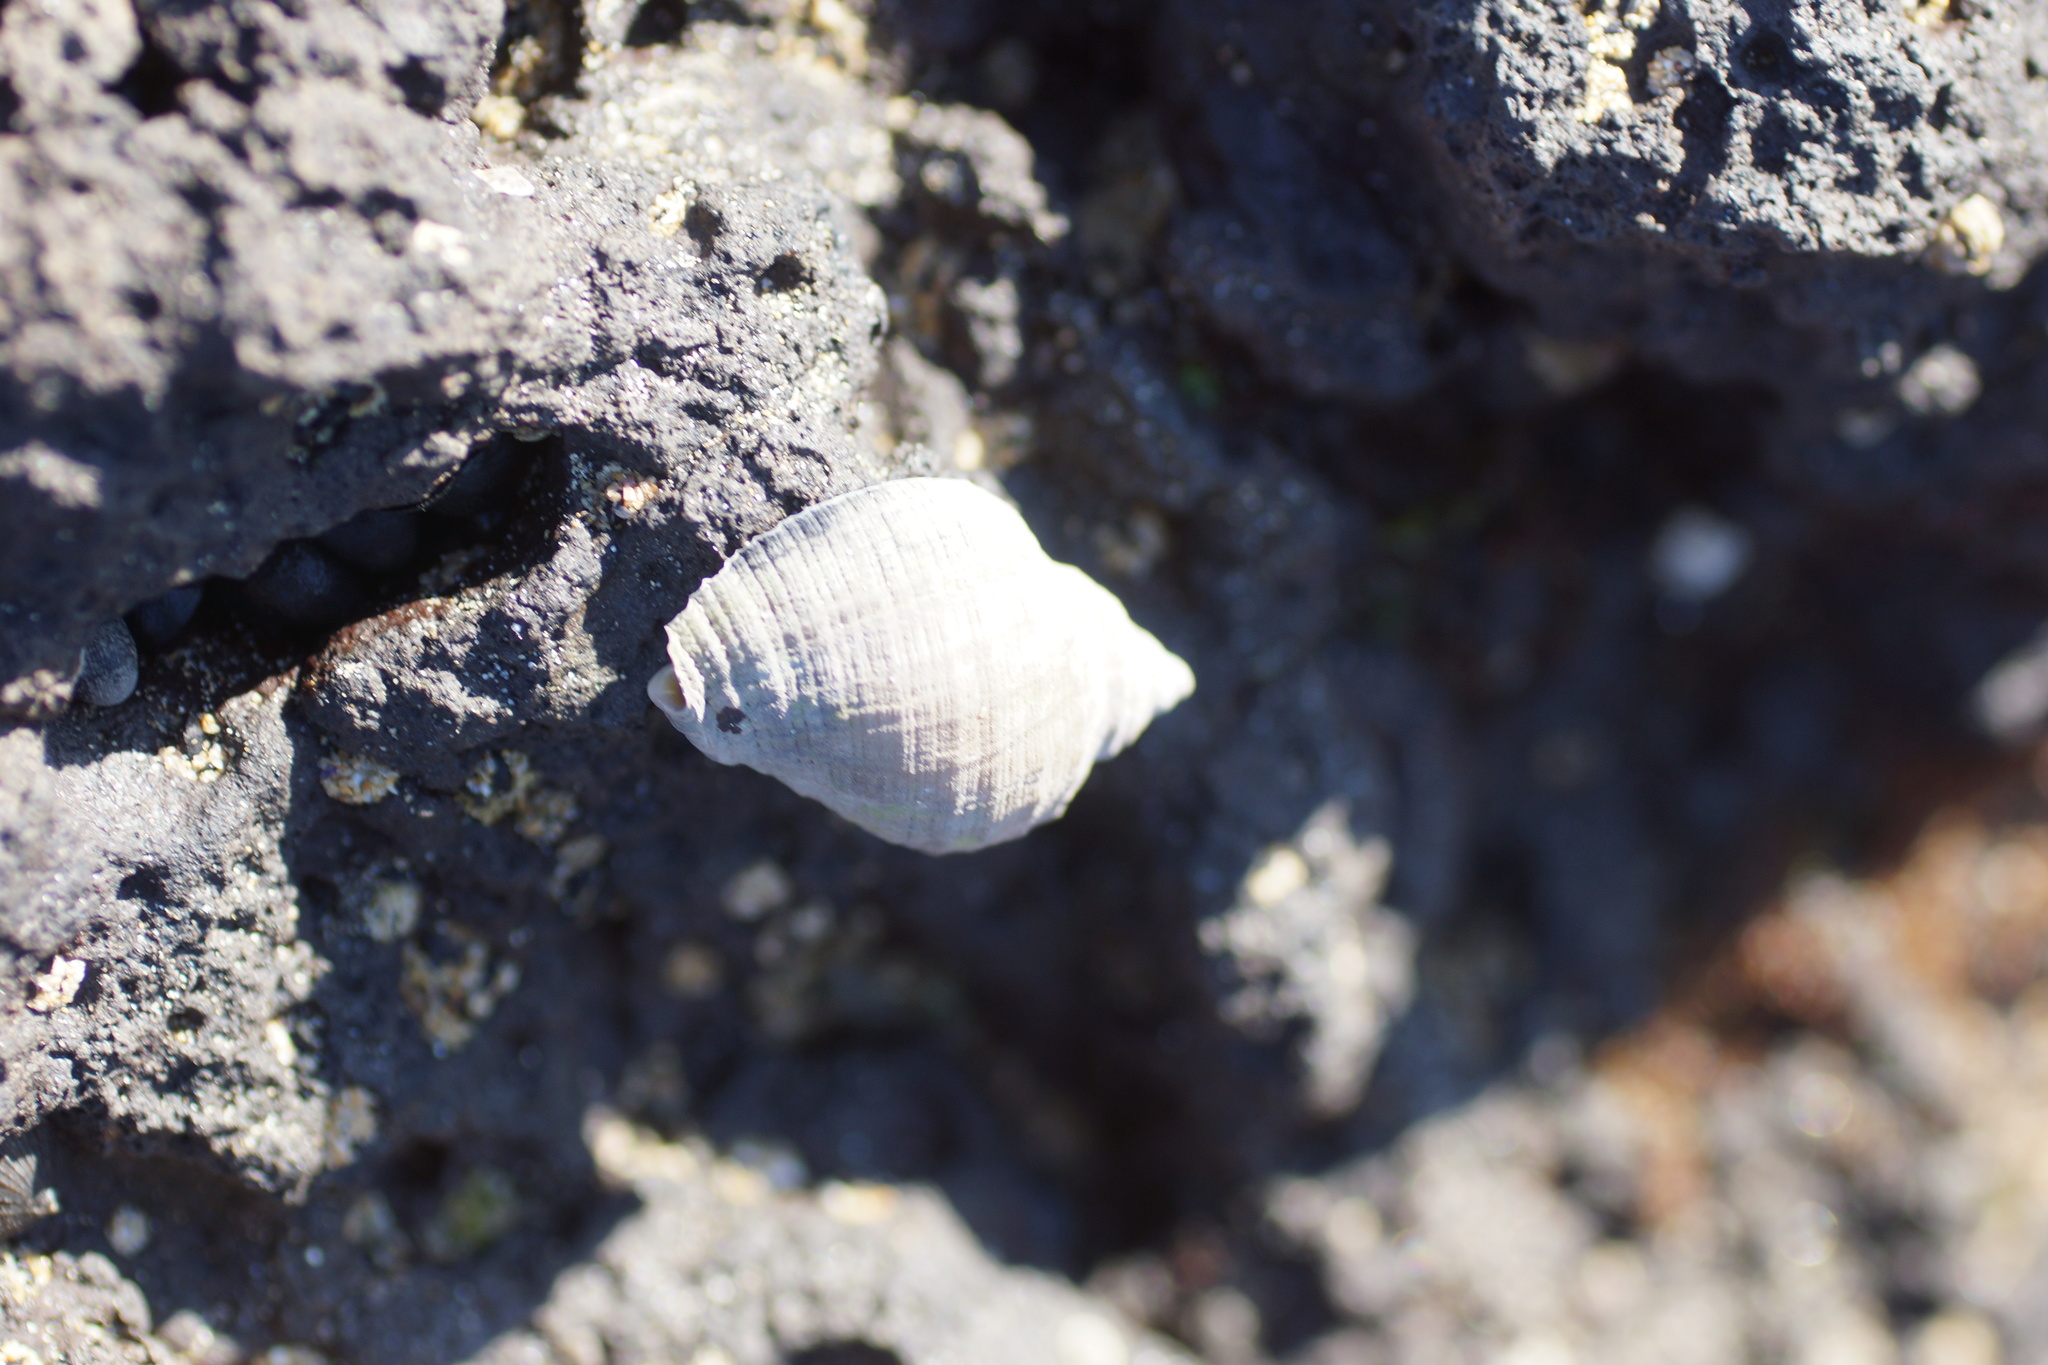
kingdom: Animalia
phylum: Mollusca
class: Gastropoda
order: Neogastropoda
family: Muricidae
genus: Dicathais
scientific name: Dicathais orbita
